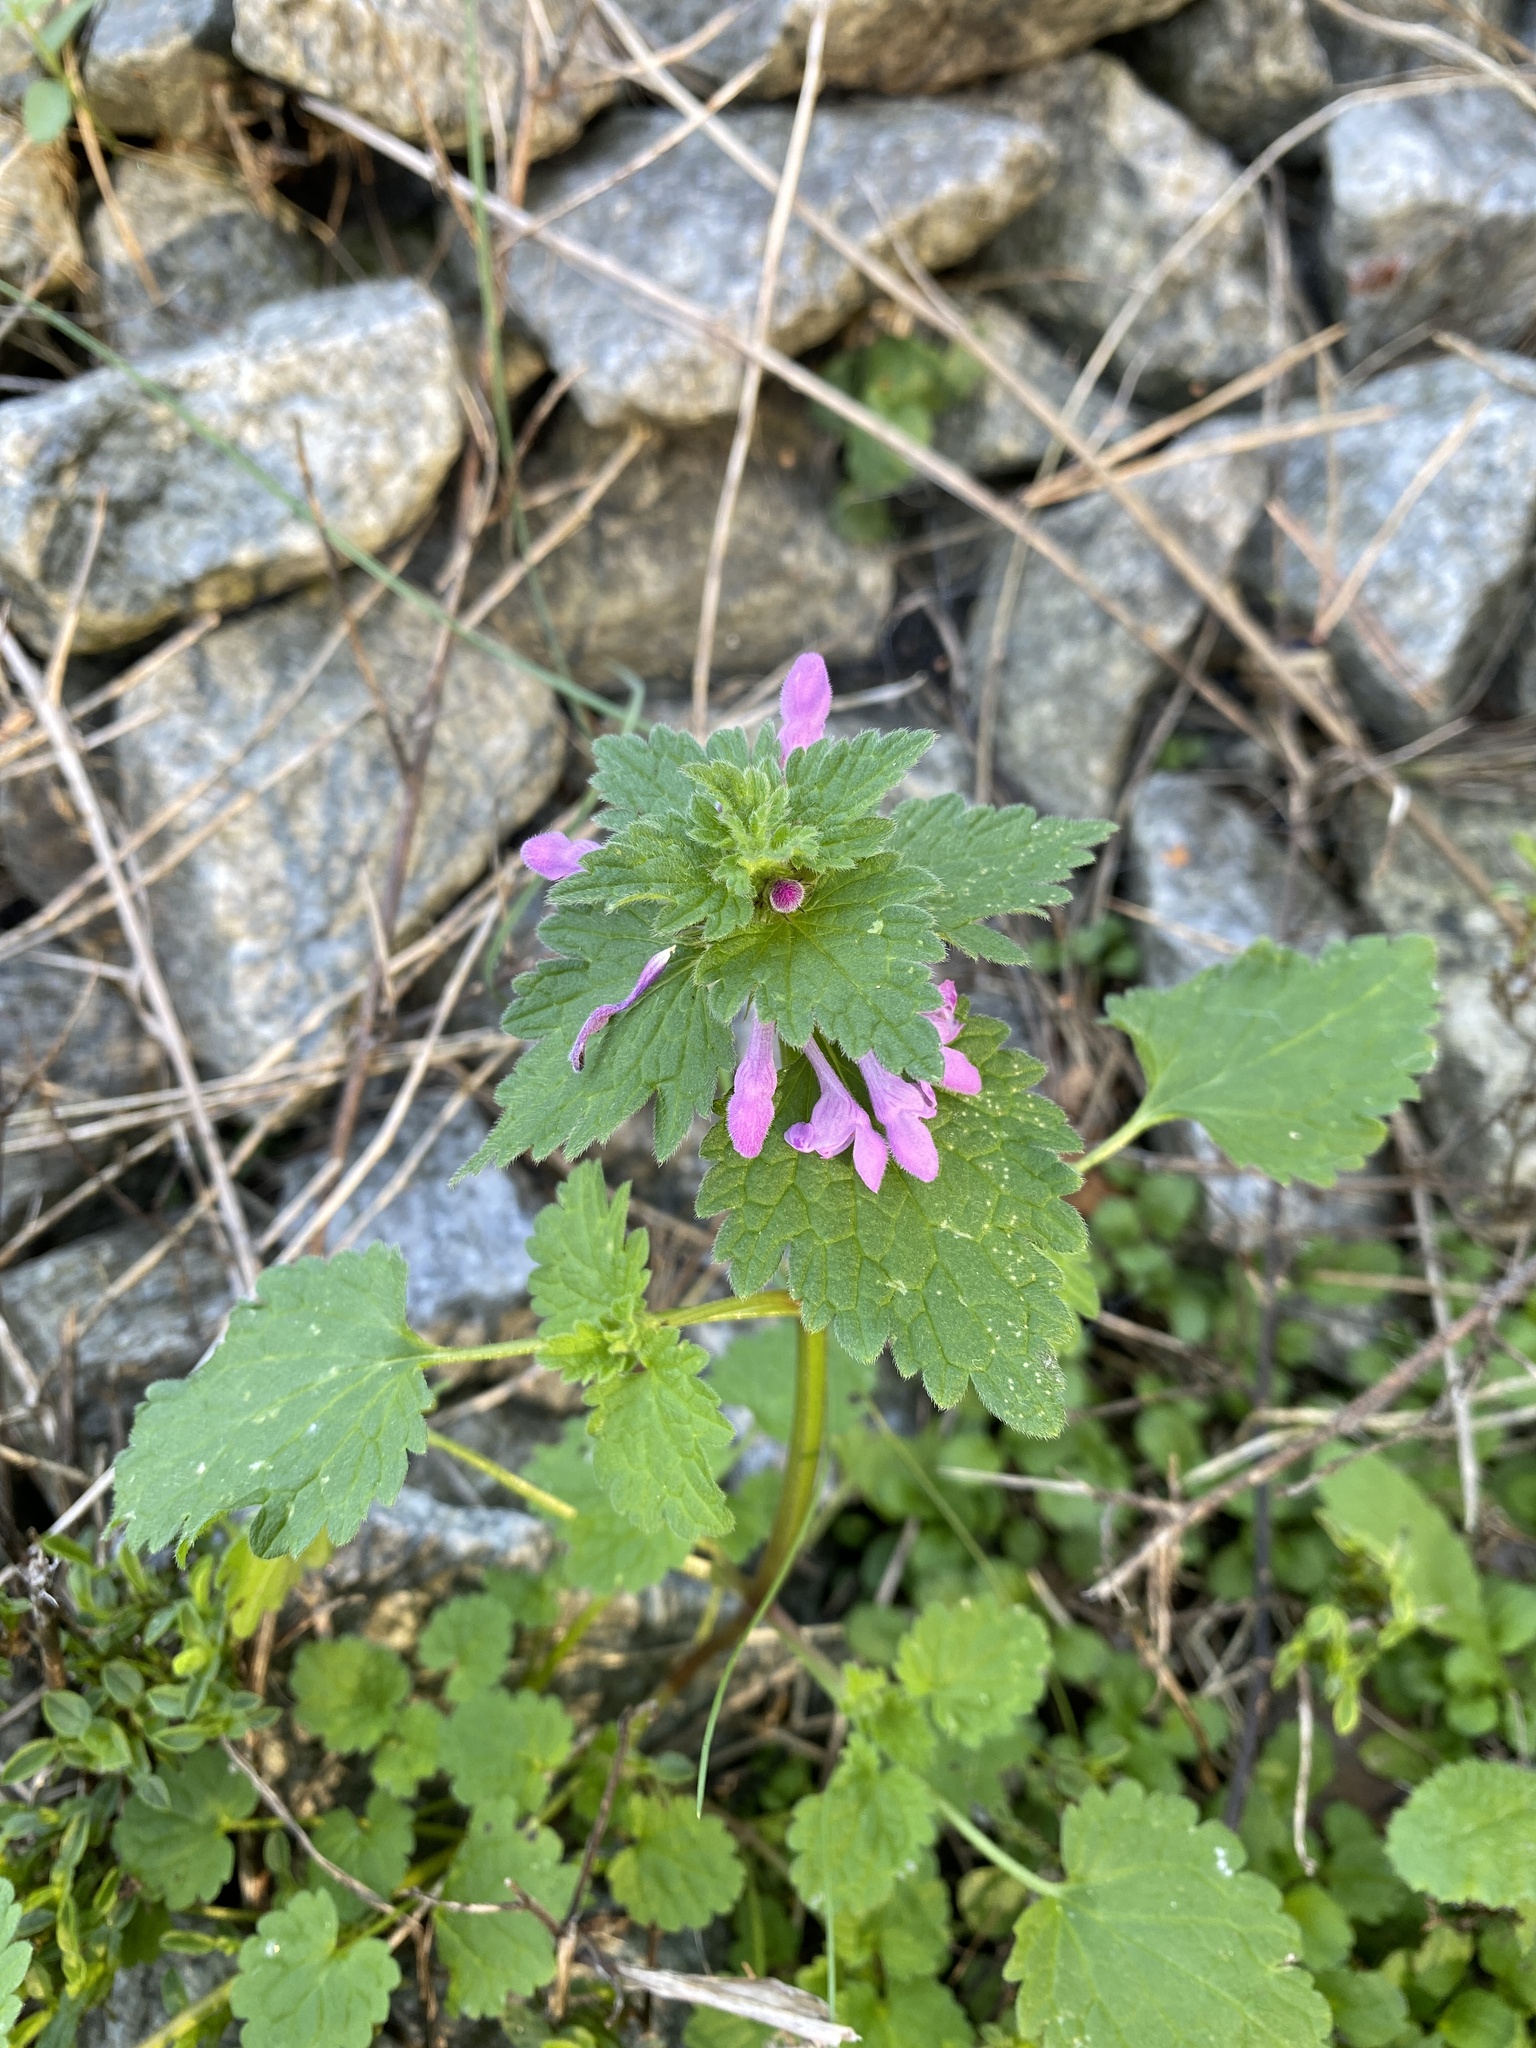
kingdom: Plantae
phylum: Tracheophyta
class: Magnoliopsida
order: Lamiales
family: Lamiaceae
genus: Lamium
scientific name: Lamium purpureum
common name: Red dead-nettle
